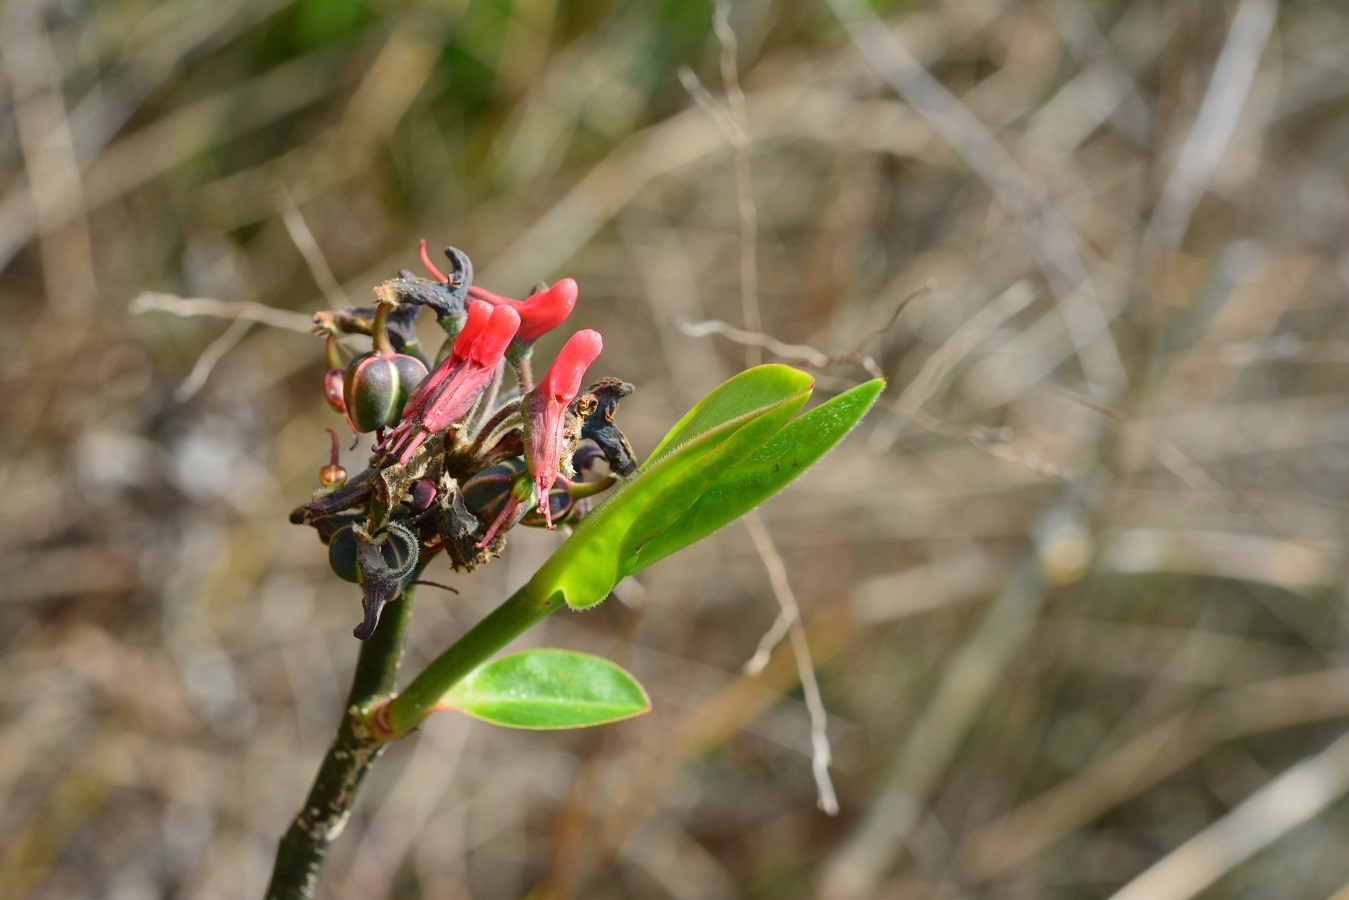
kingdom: Plantae
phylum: Tracheophyta
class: Magnoliopsida
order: Malpighiales
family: Euphorbiaceae
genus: Euphorbia
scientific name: Euphorbia calcarata
